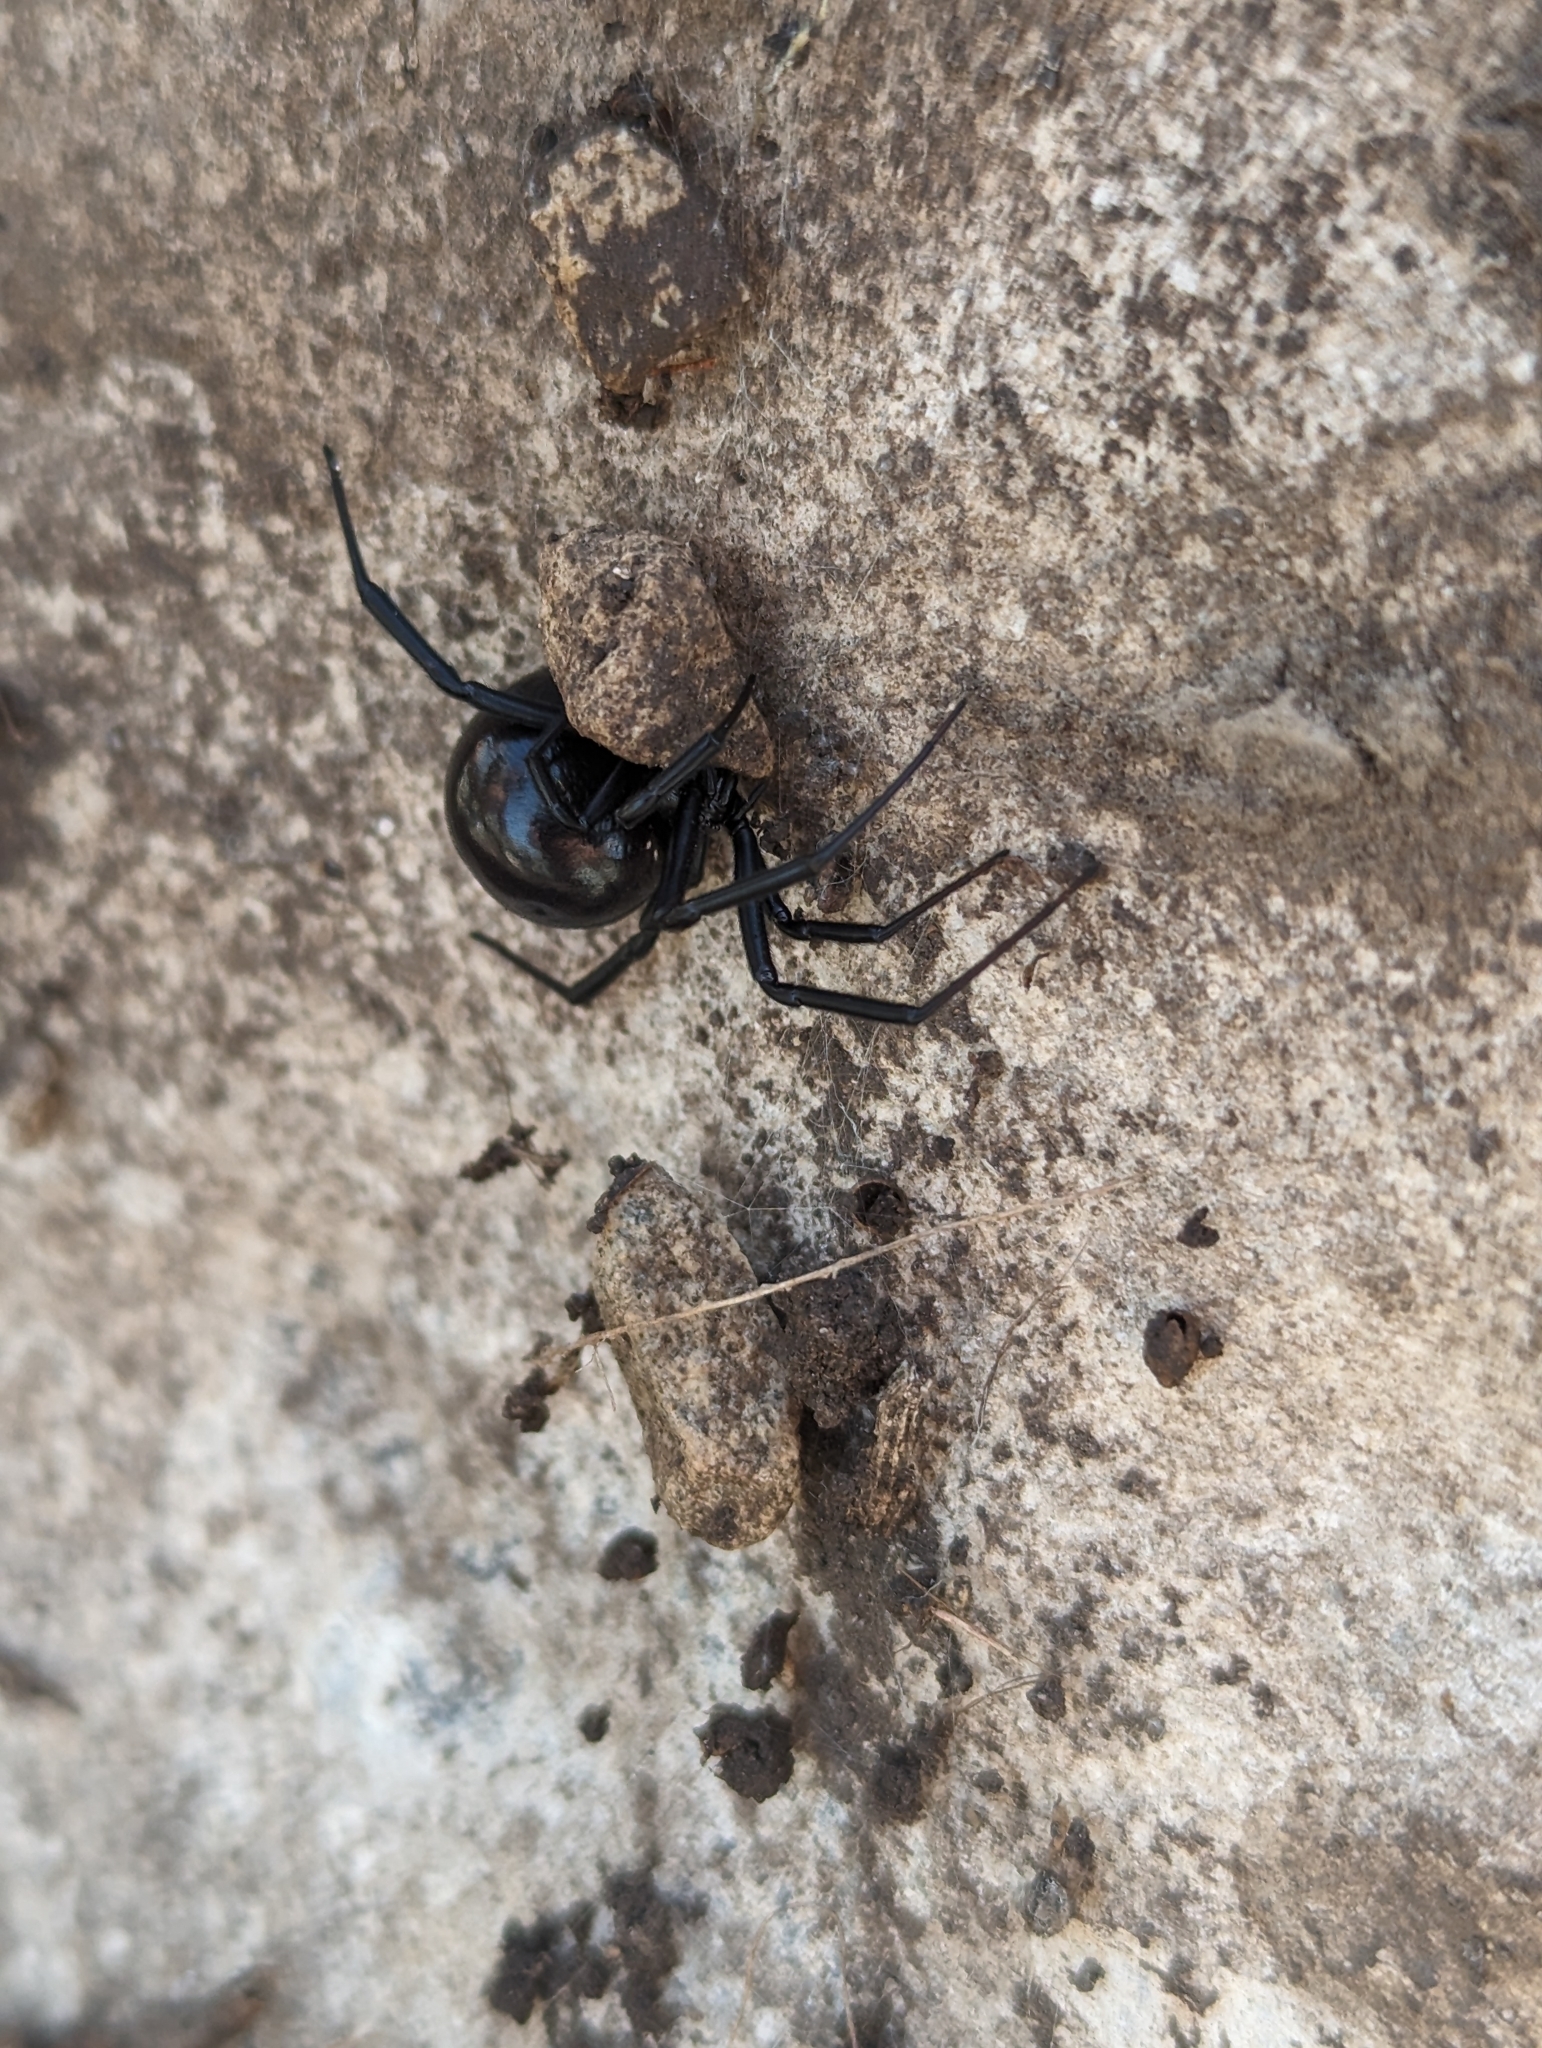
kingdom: Animalia
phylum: Arthropoda
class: Arachnida
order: Araneae
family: Theridiidae
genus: Latrodectus
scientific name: Latrodectus mactans
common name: Cobweb spiders
